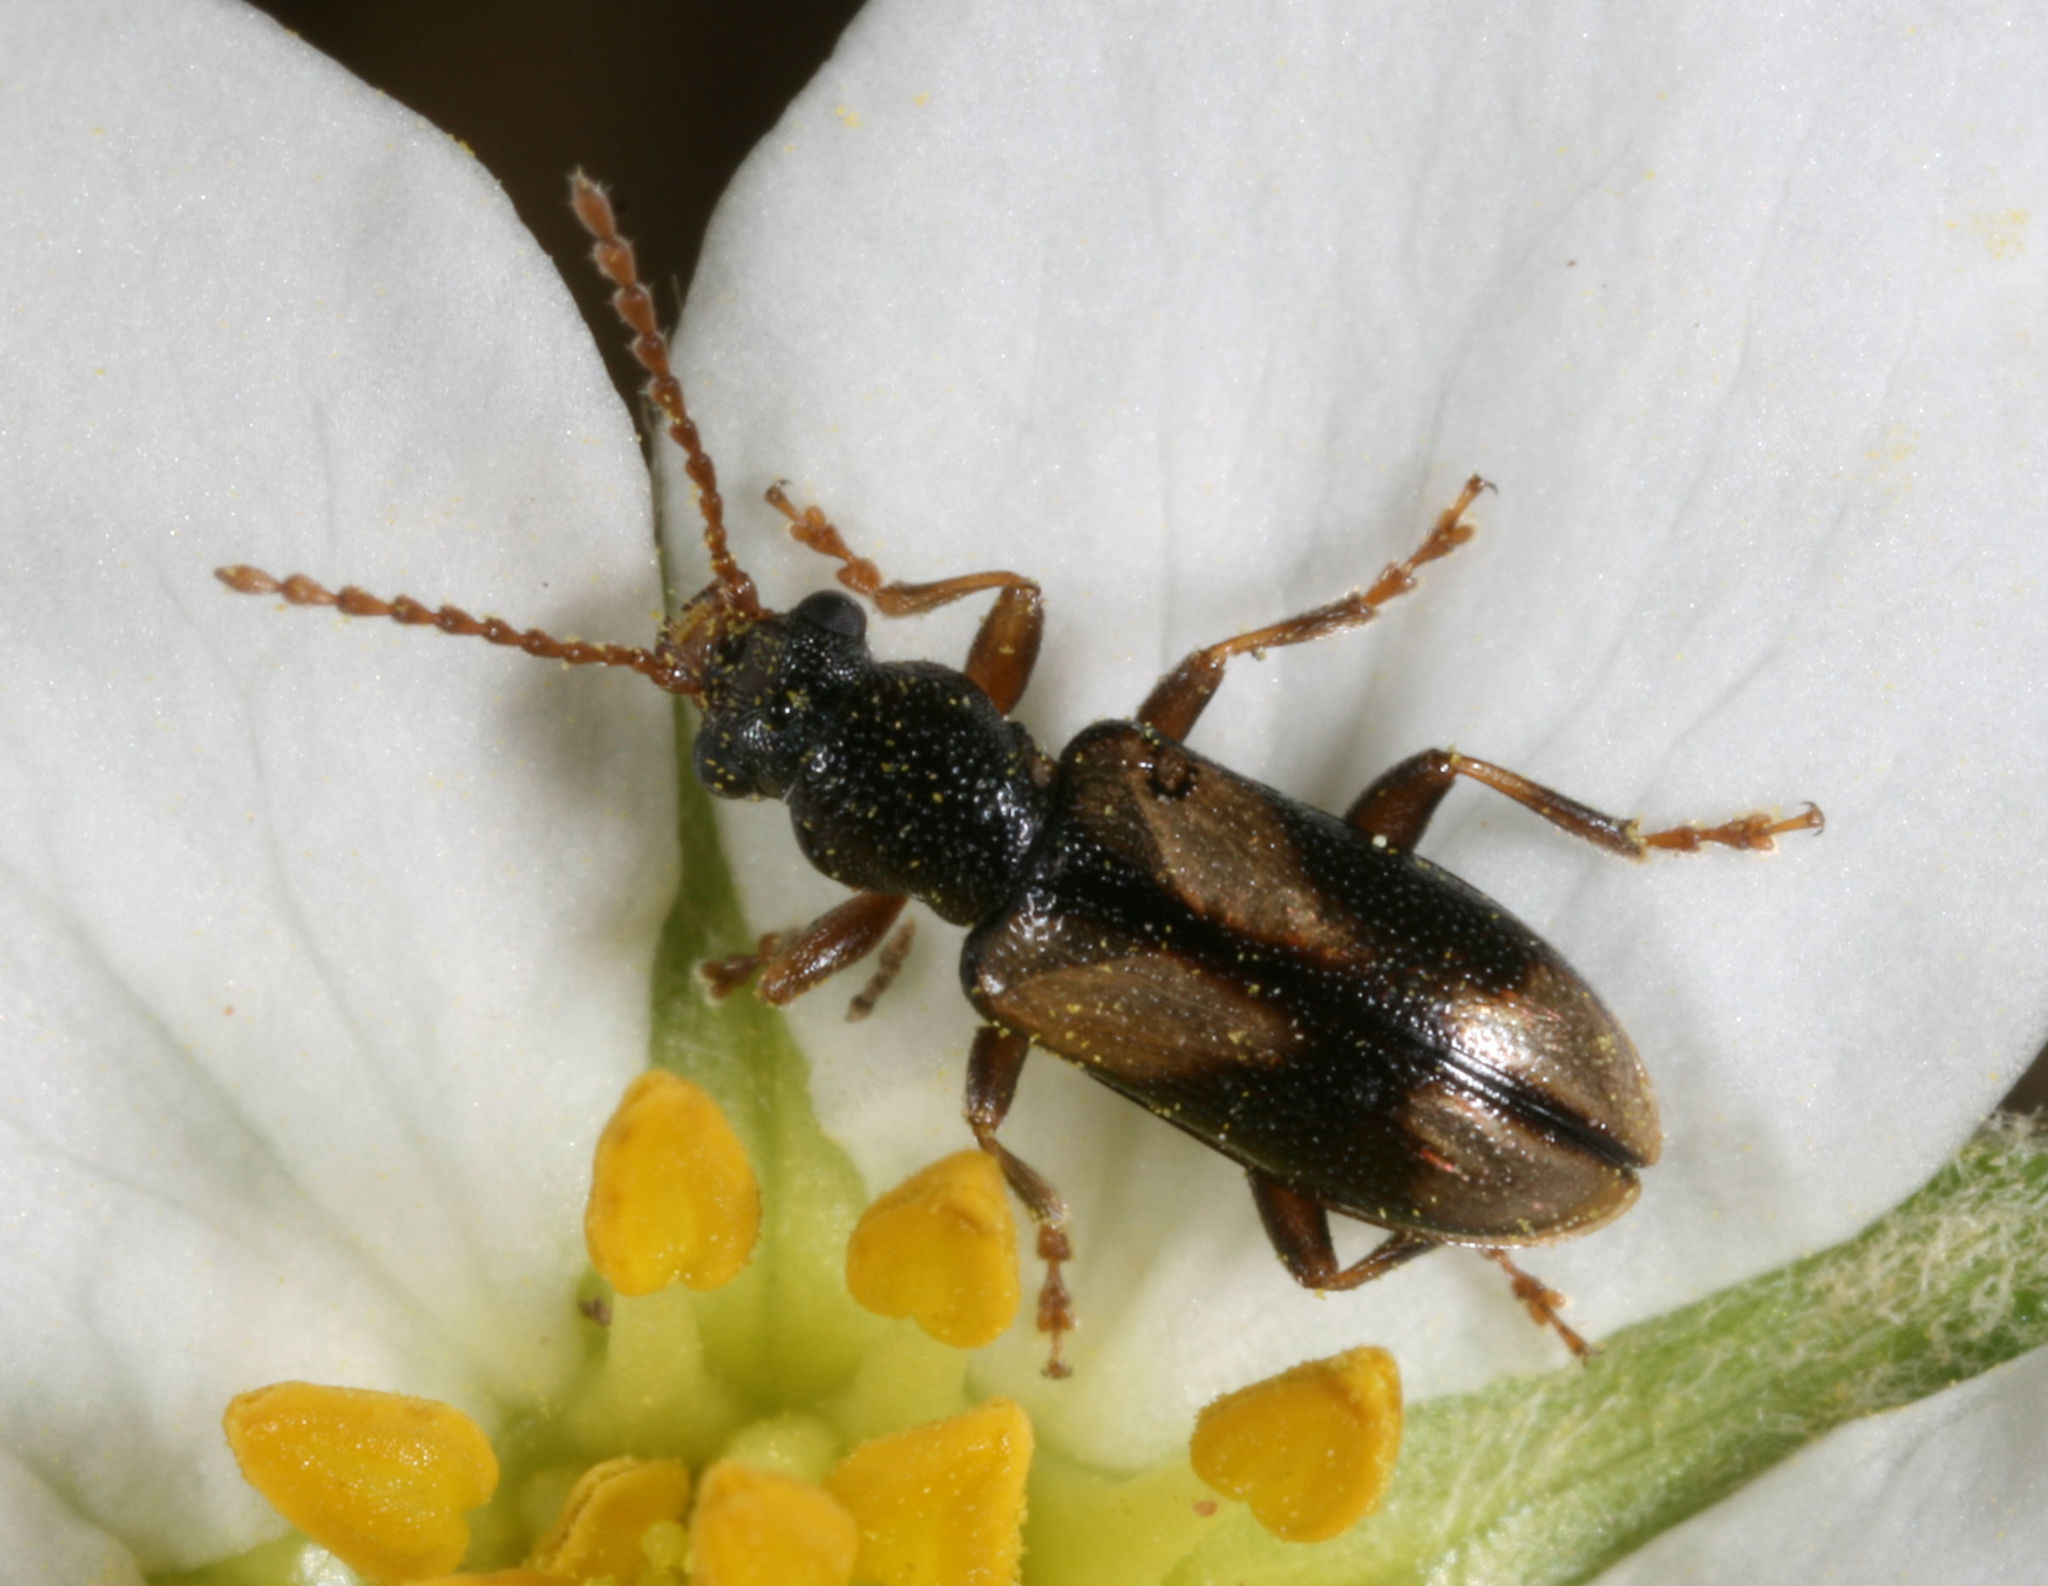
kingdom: Animalia
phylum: Arthropoda
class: Insecta
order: Coleoptera
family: Orsodacnidae
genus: Orsodacne
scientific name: Orsodacne atra
